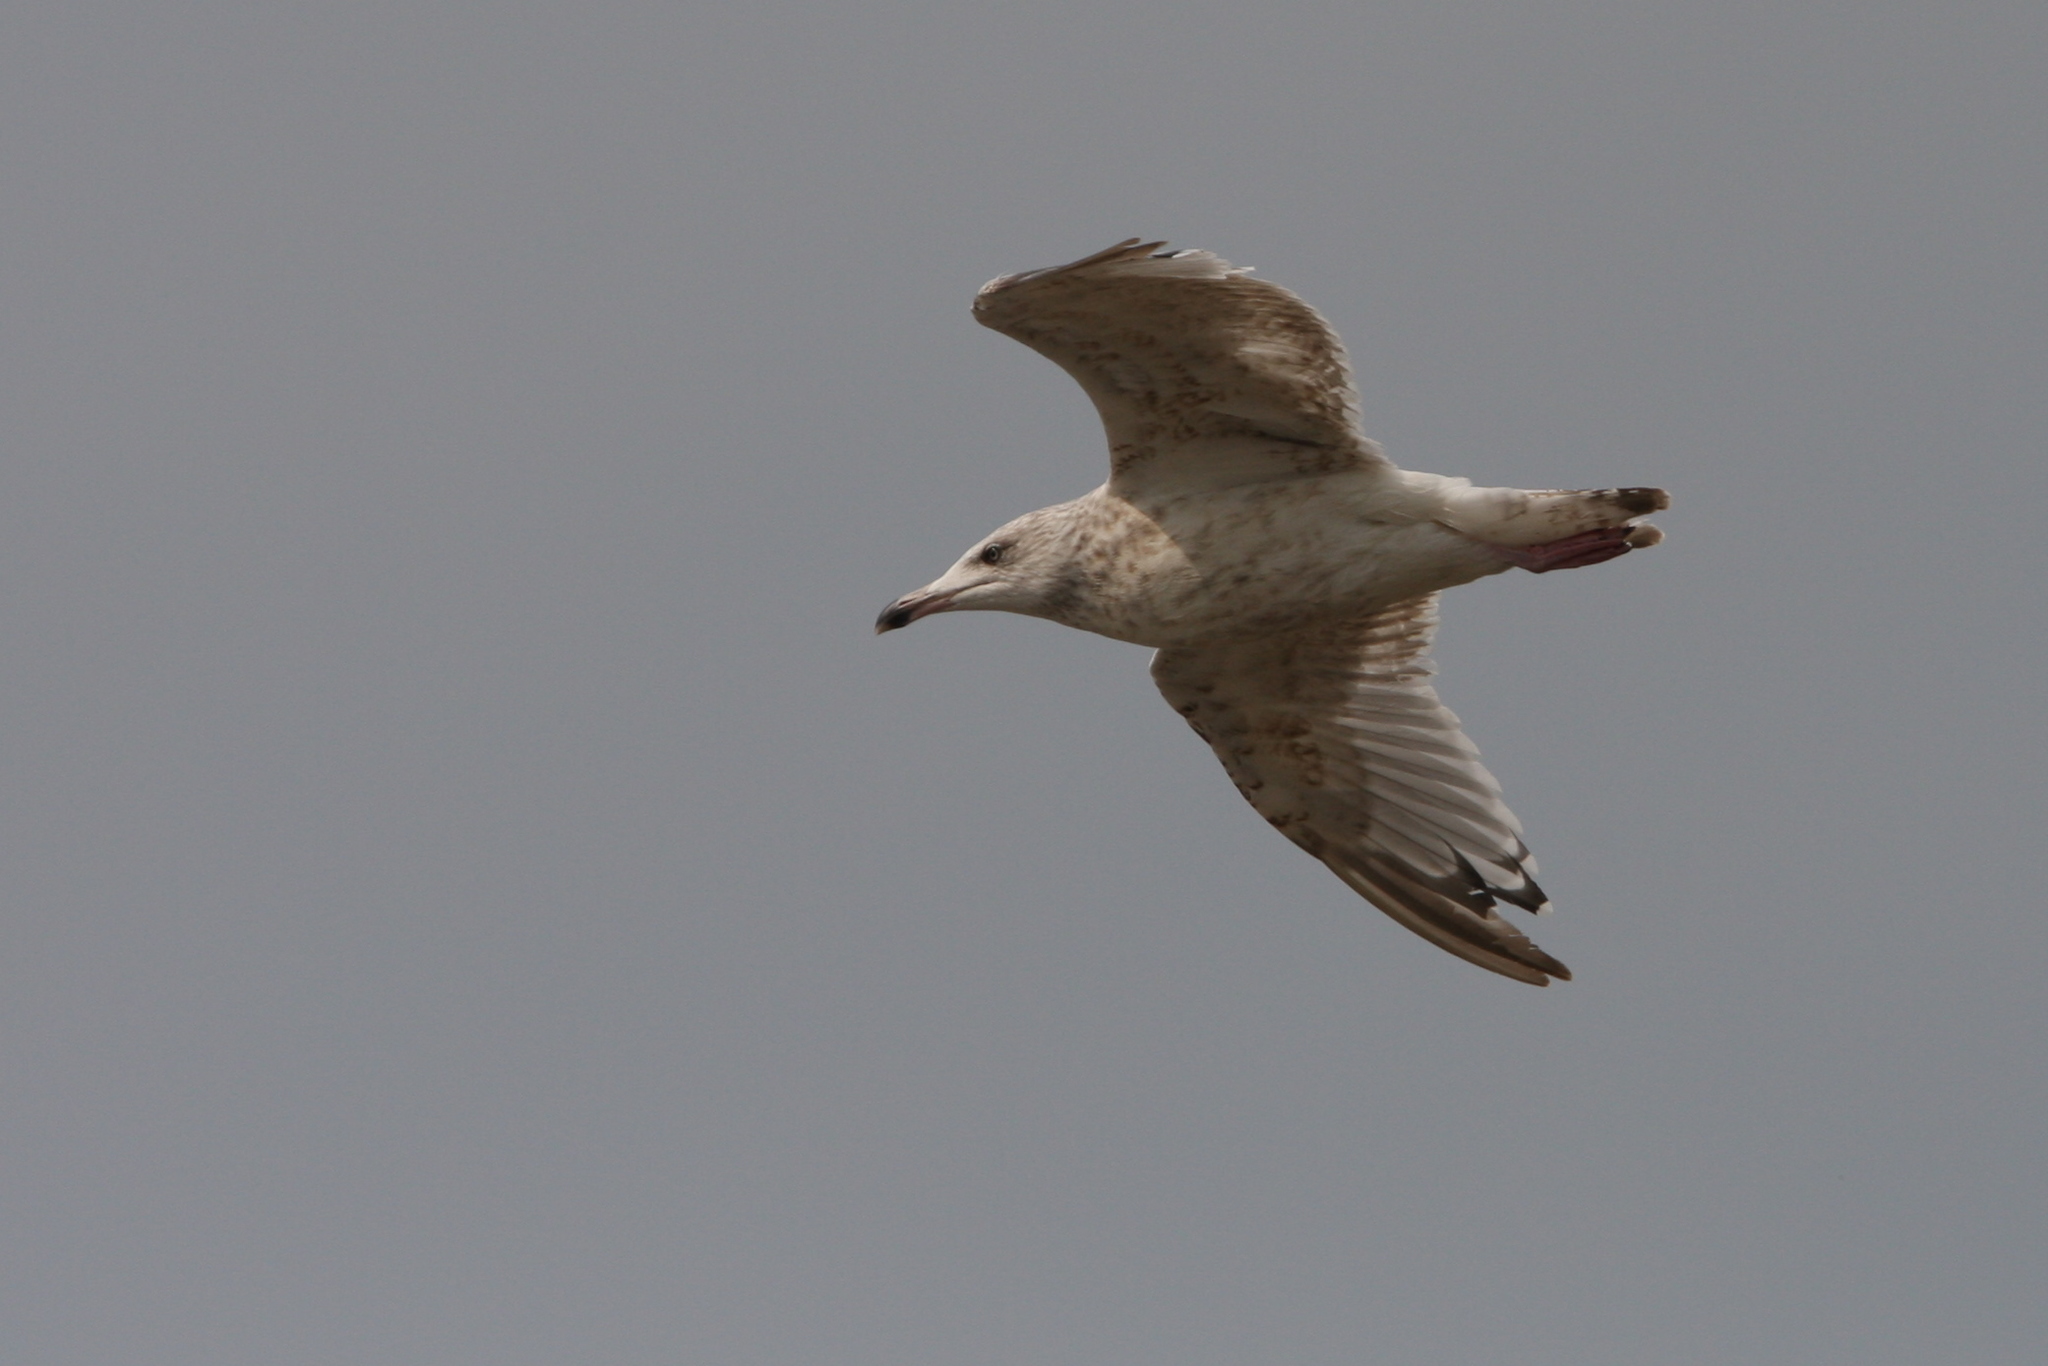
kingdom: Animalia
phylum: Chordata
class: Aves
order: Charadriiformes
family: Laridae
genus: Larus
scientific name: Larus argentatus
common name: Herring gull
